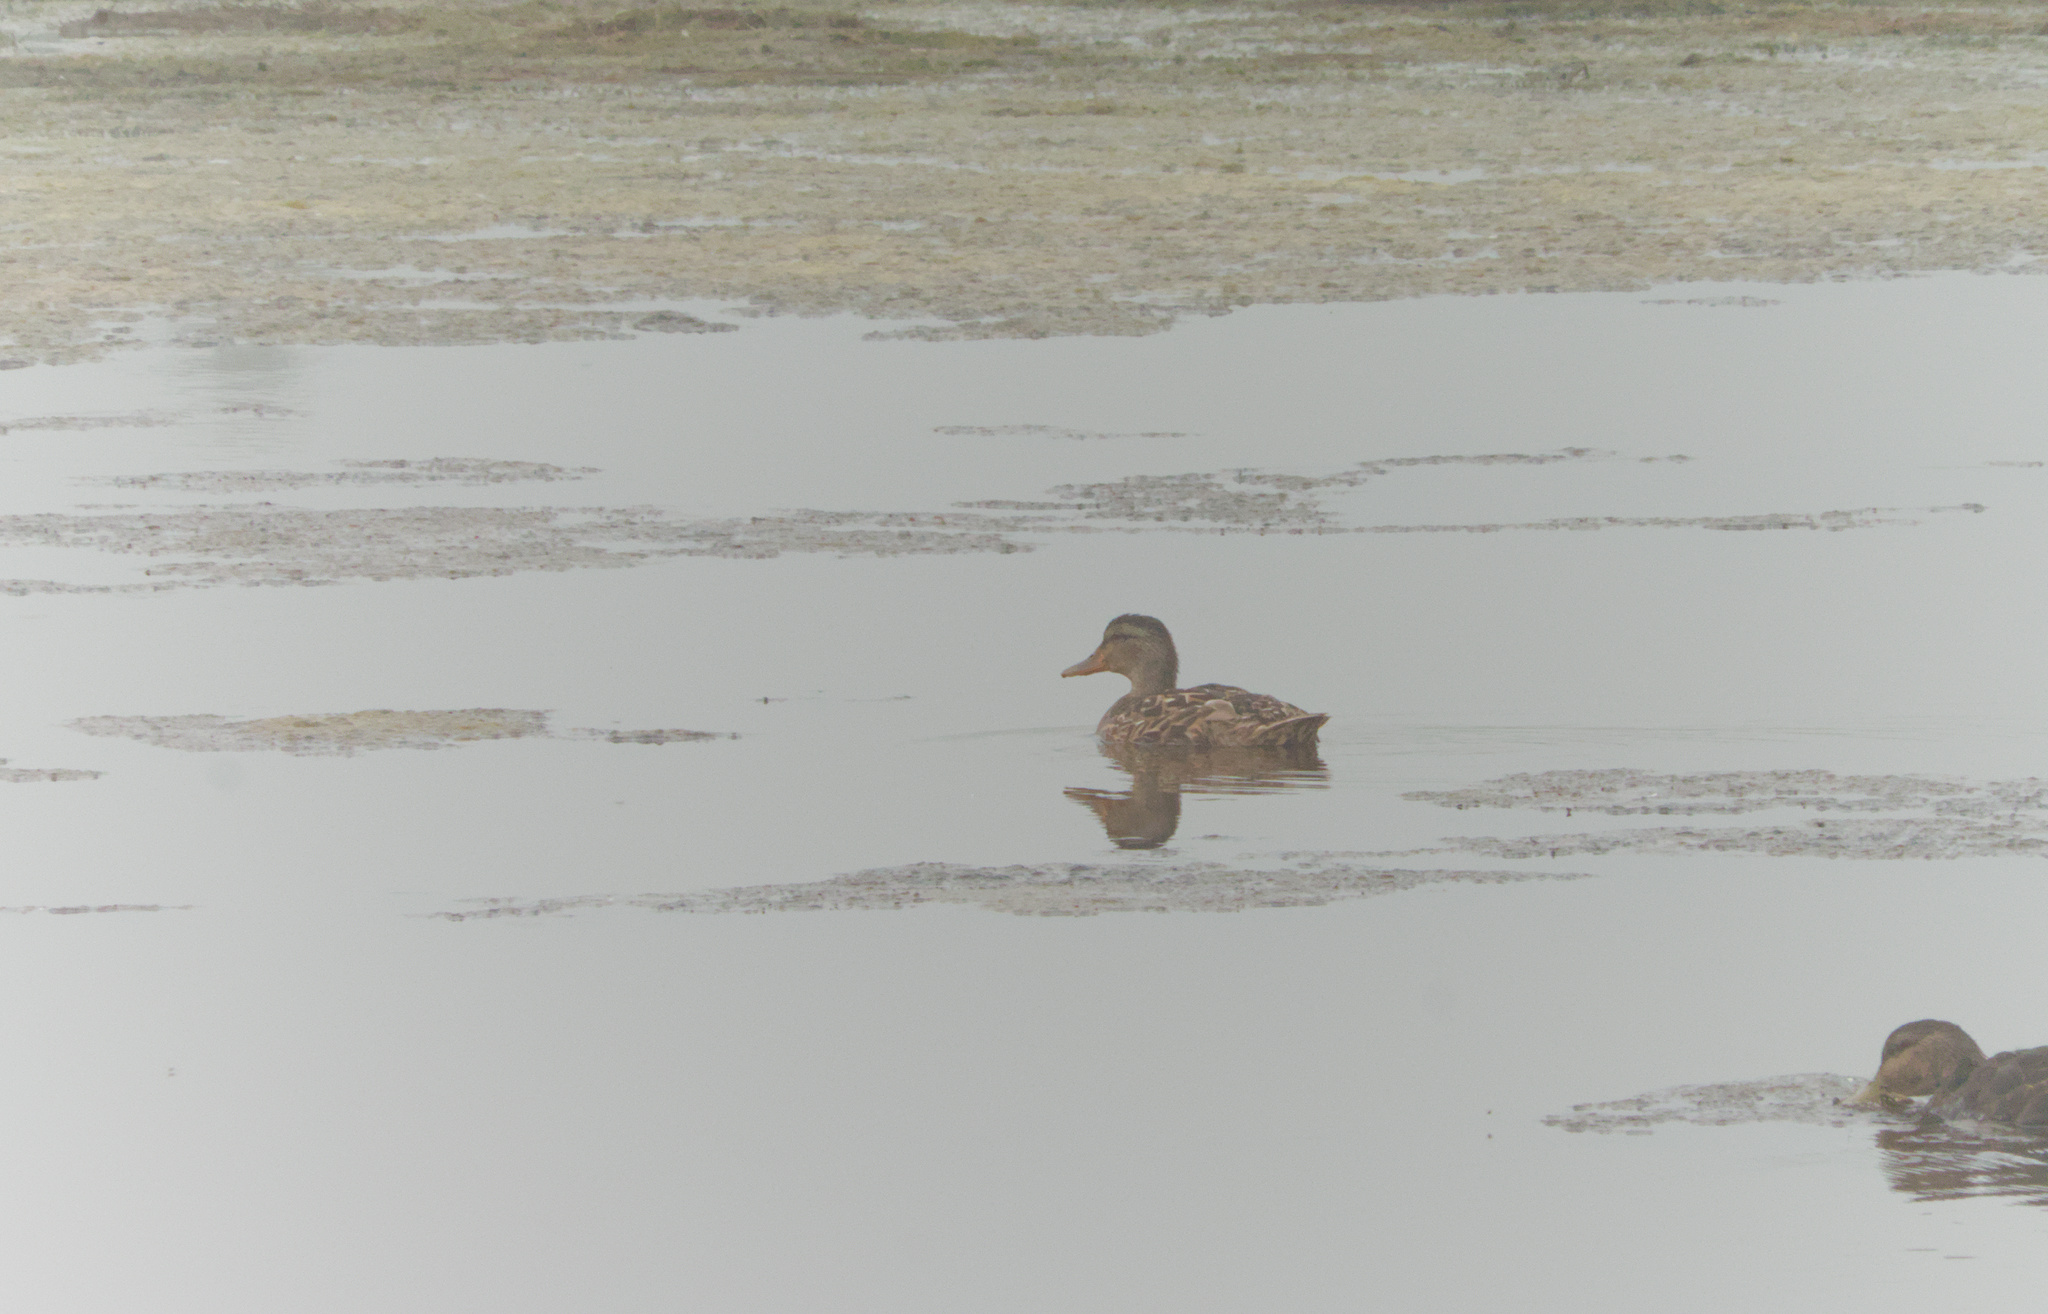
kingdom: Animalia
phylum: Chordata
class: Aves
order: Anseriformes
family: Anatidae
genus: Anas
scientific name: Anas platyrhynchos
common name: Mallard
